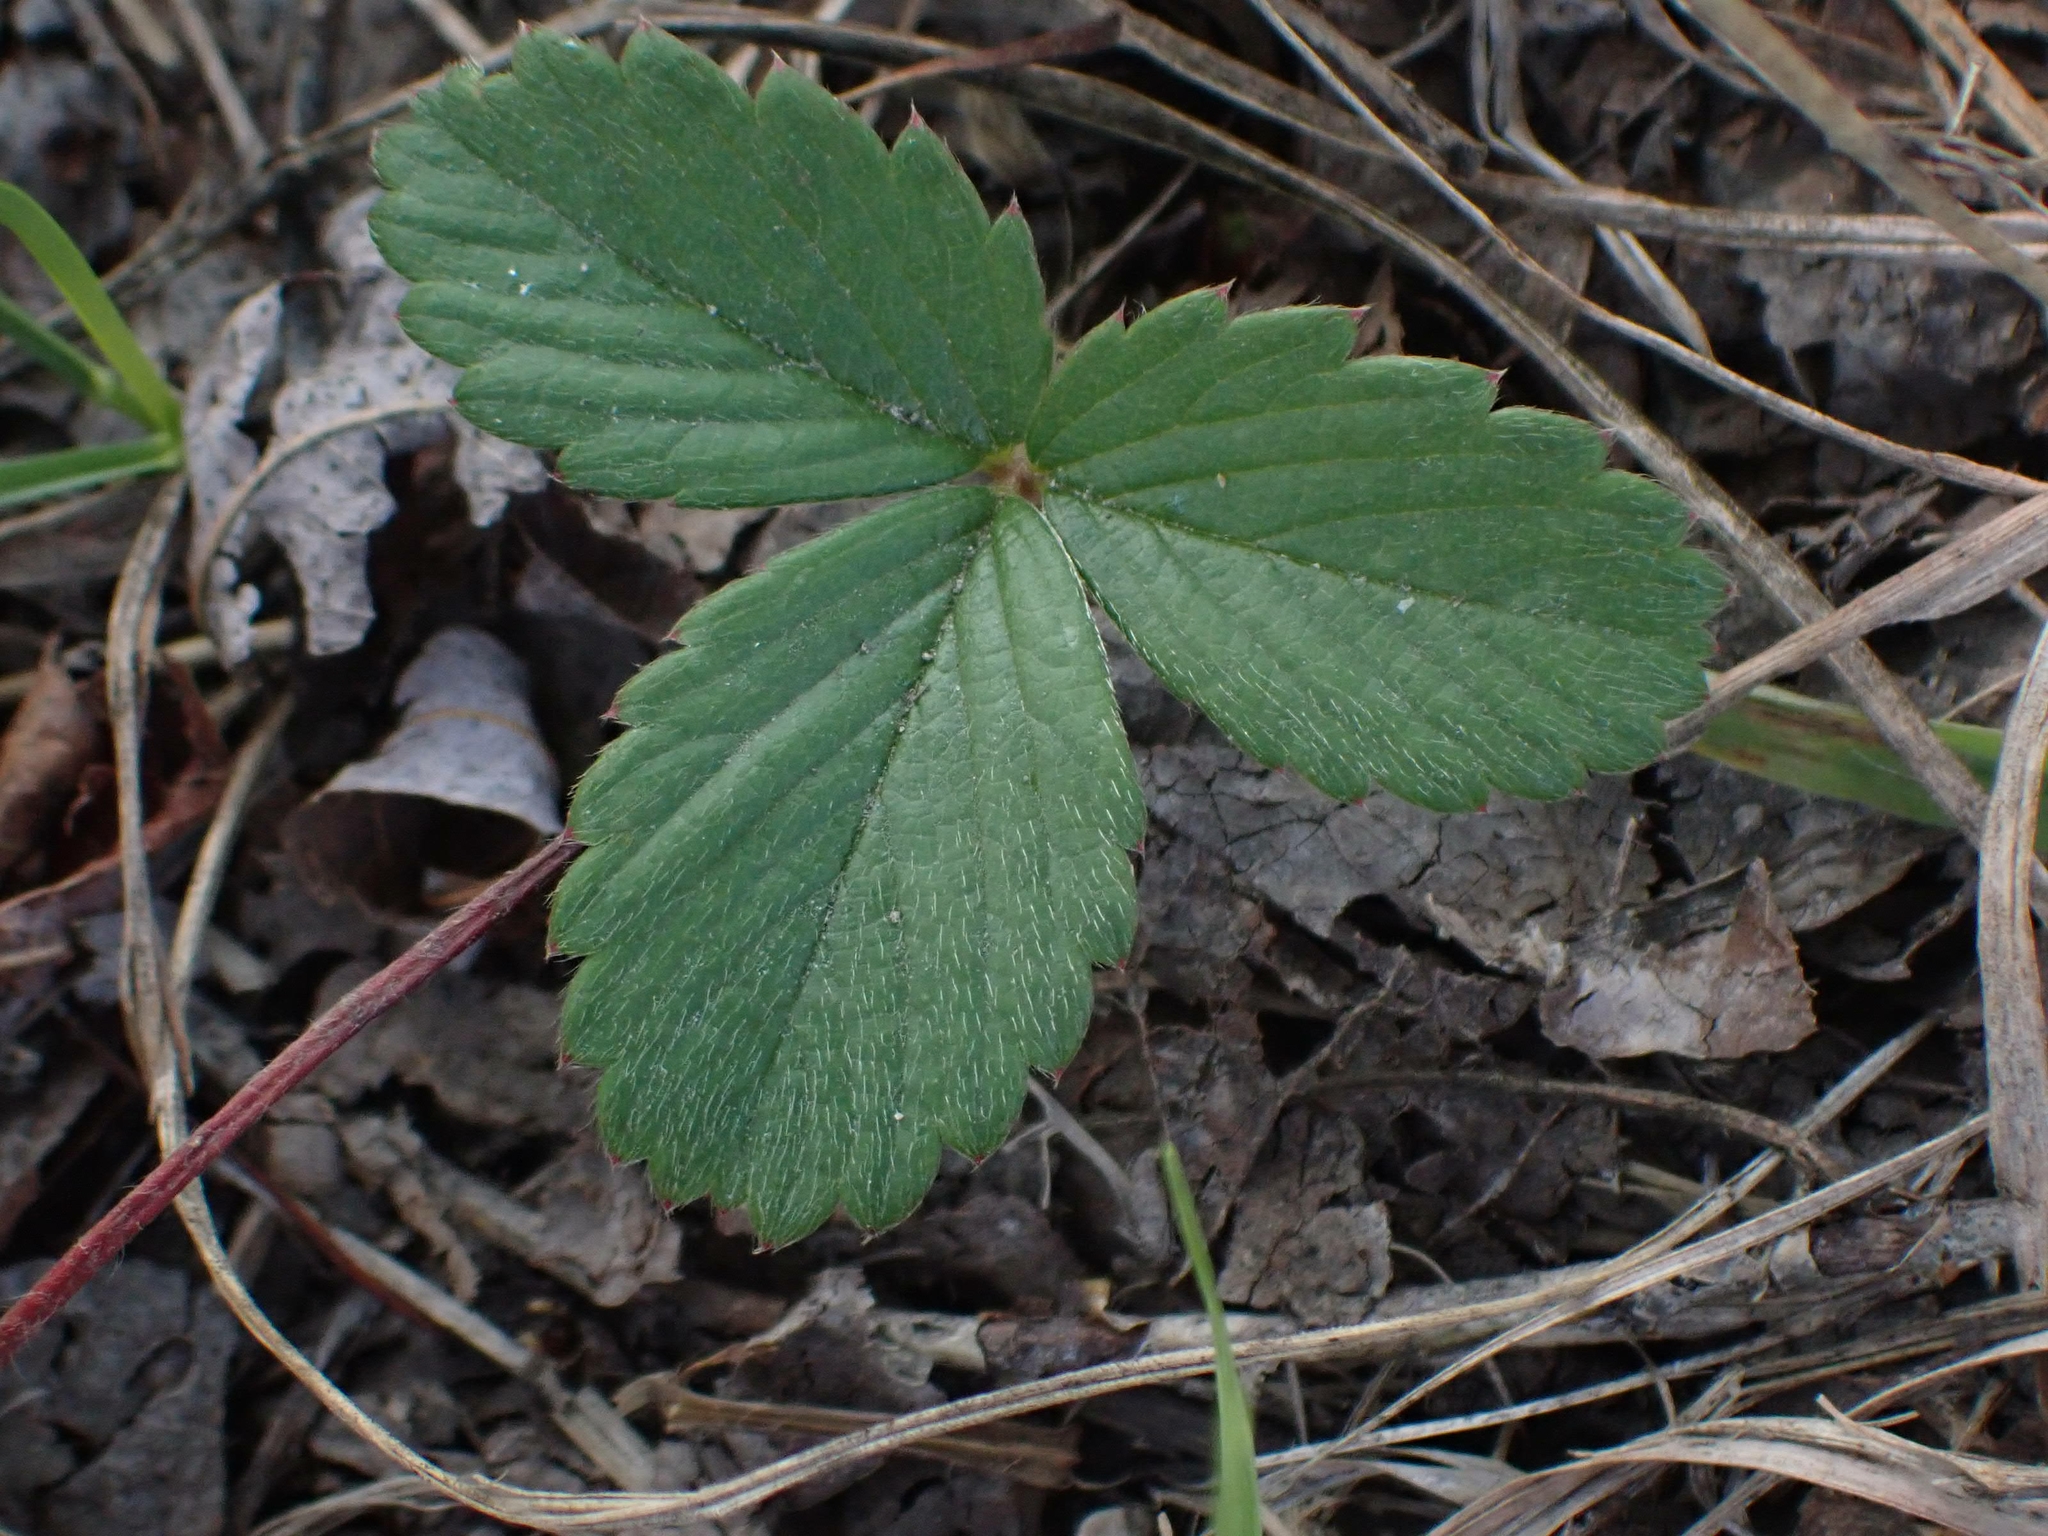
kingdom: Plantae
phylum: Tracheophyta
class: Magnoliopsida
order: Rosales
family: Rosaceae
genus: Fragaria
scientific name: Fragaria virginiana
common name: Thickleaved wild strawberry
